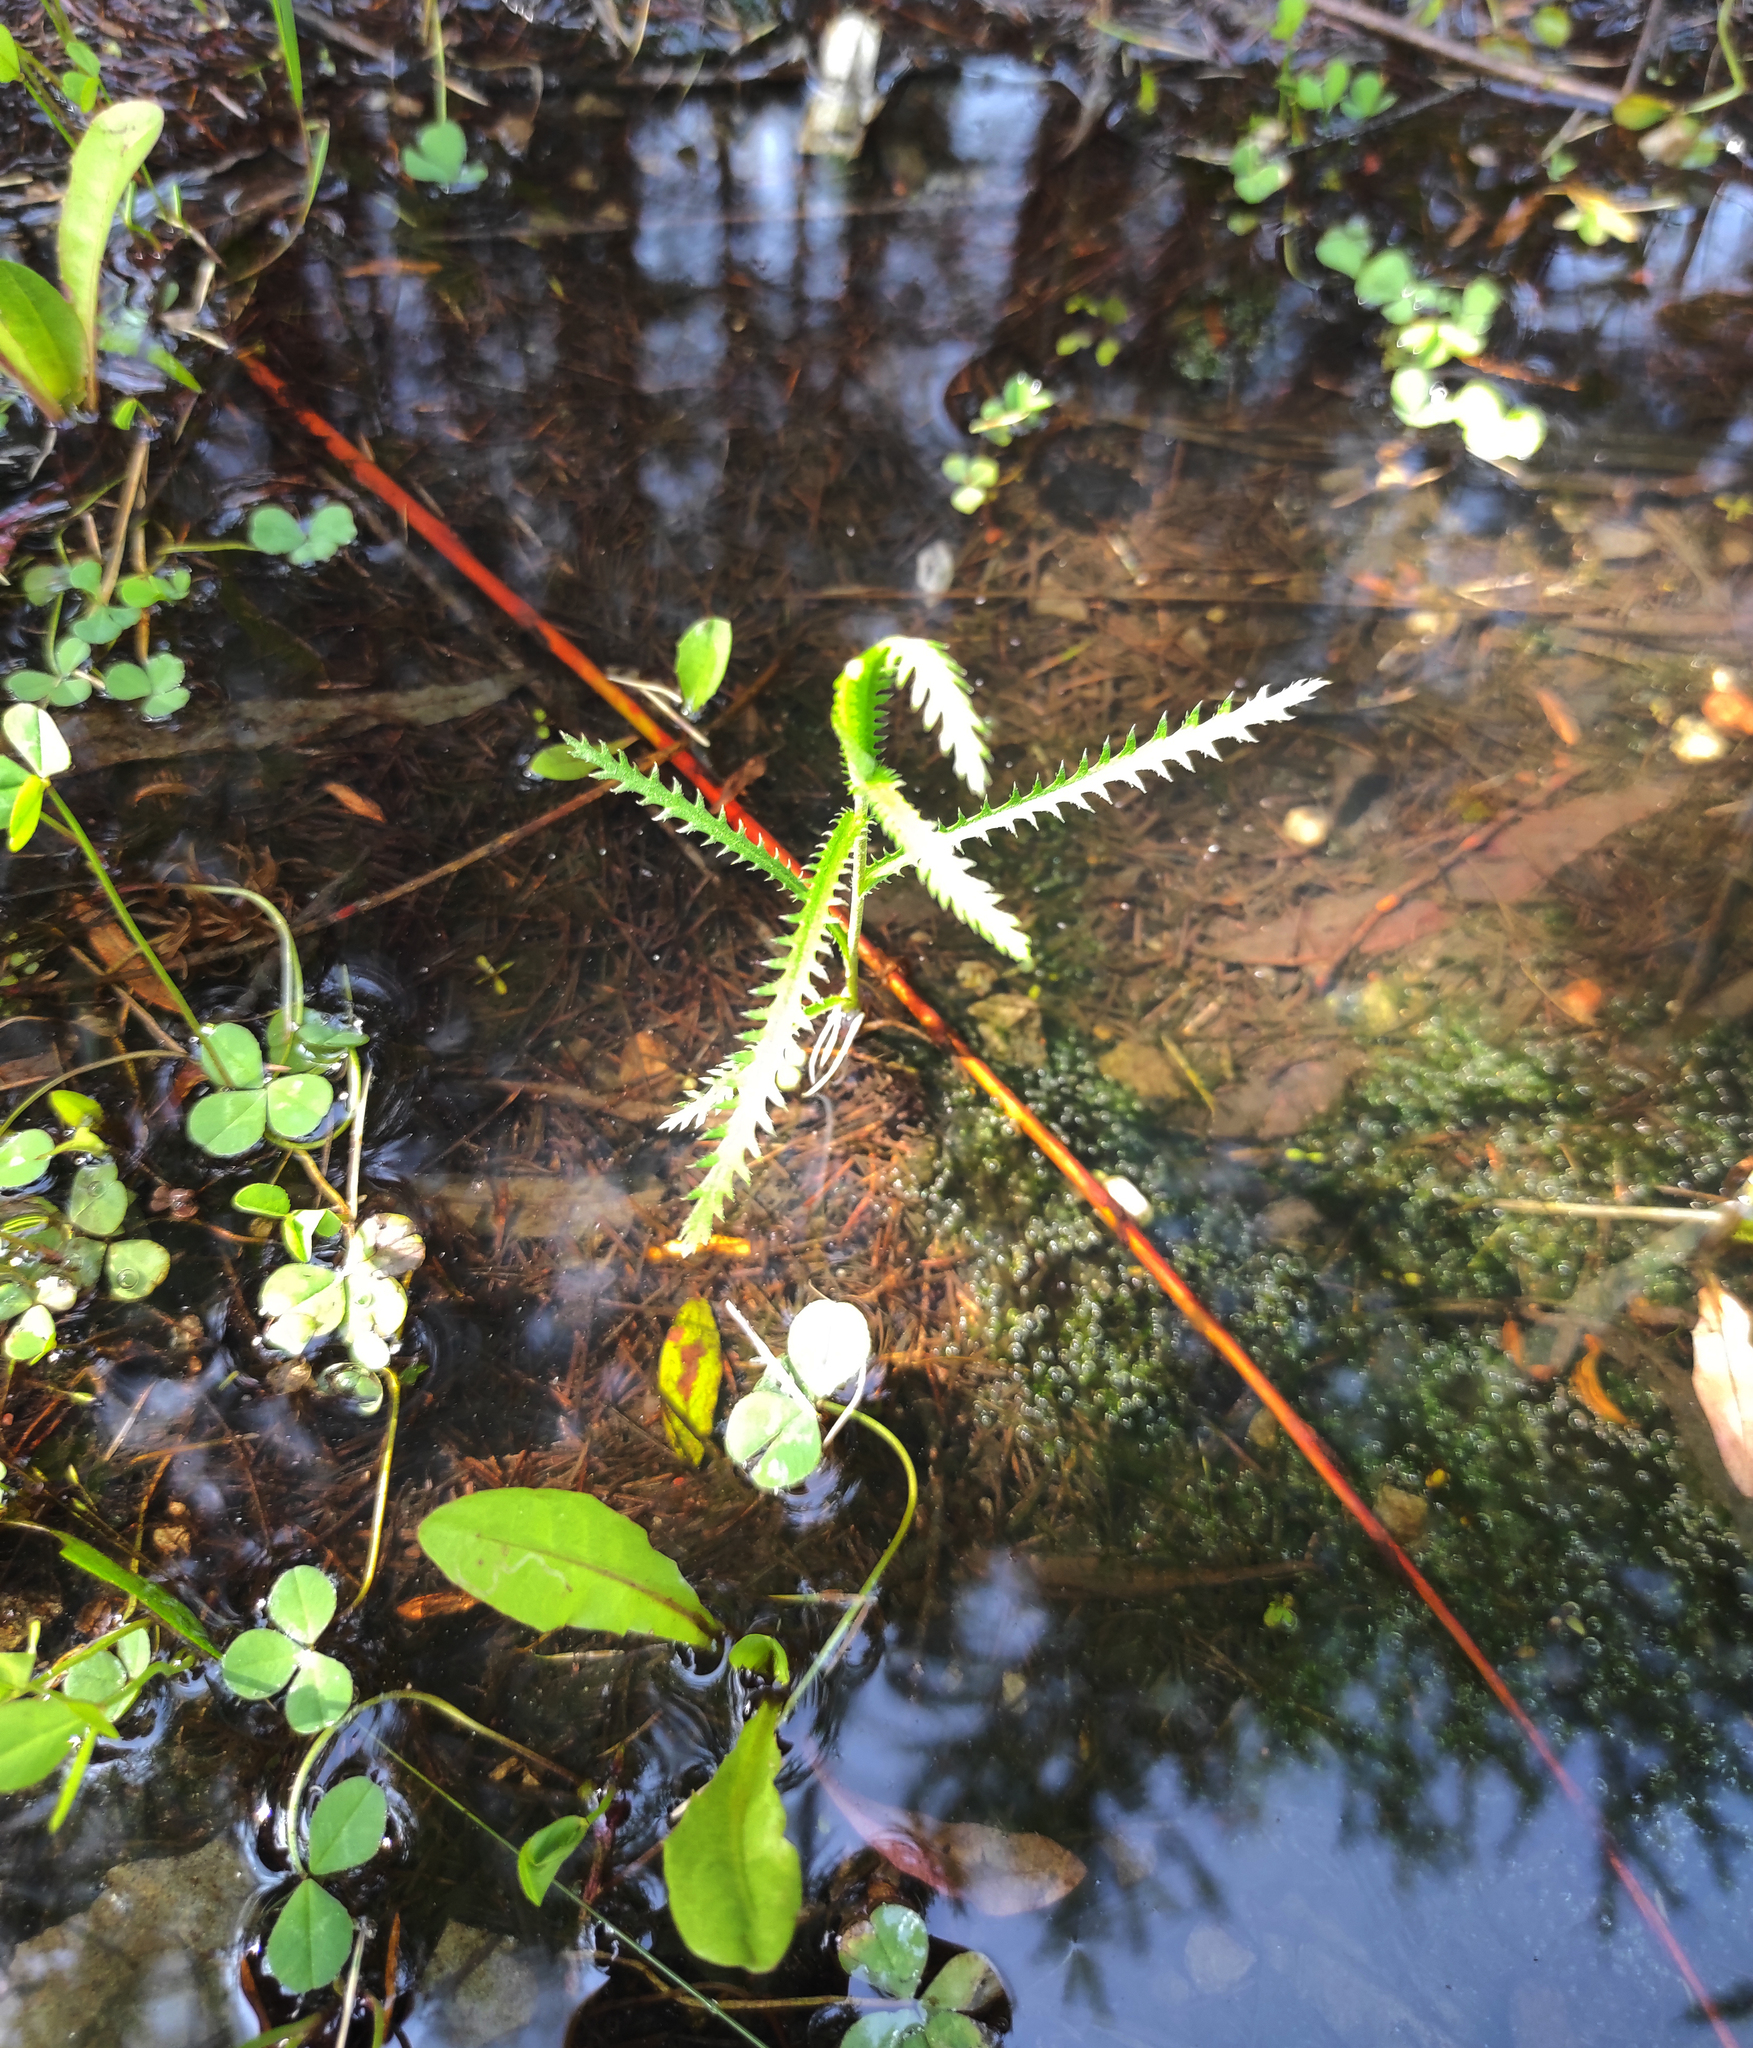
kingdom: Plantae
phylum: Tracheophyta
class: Magnoliopsida
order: Asterales
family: Asteraceae
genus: Achillea
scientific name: Achillea alpina
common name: Siberian yarrow
